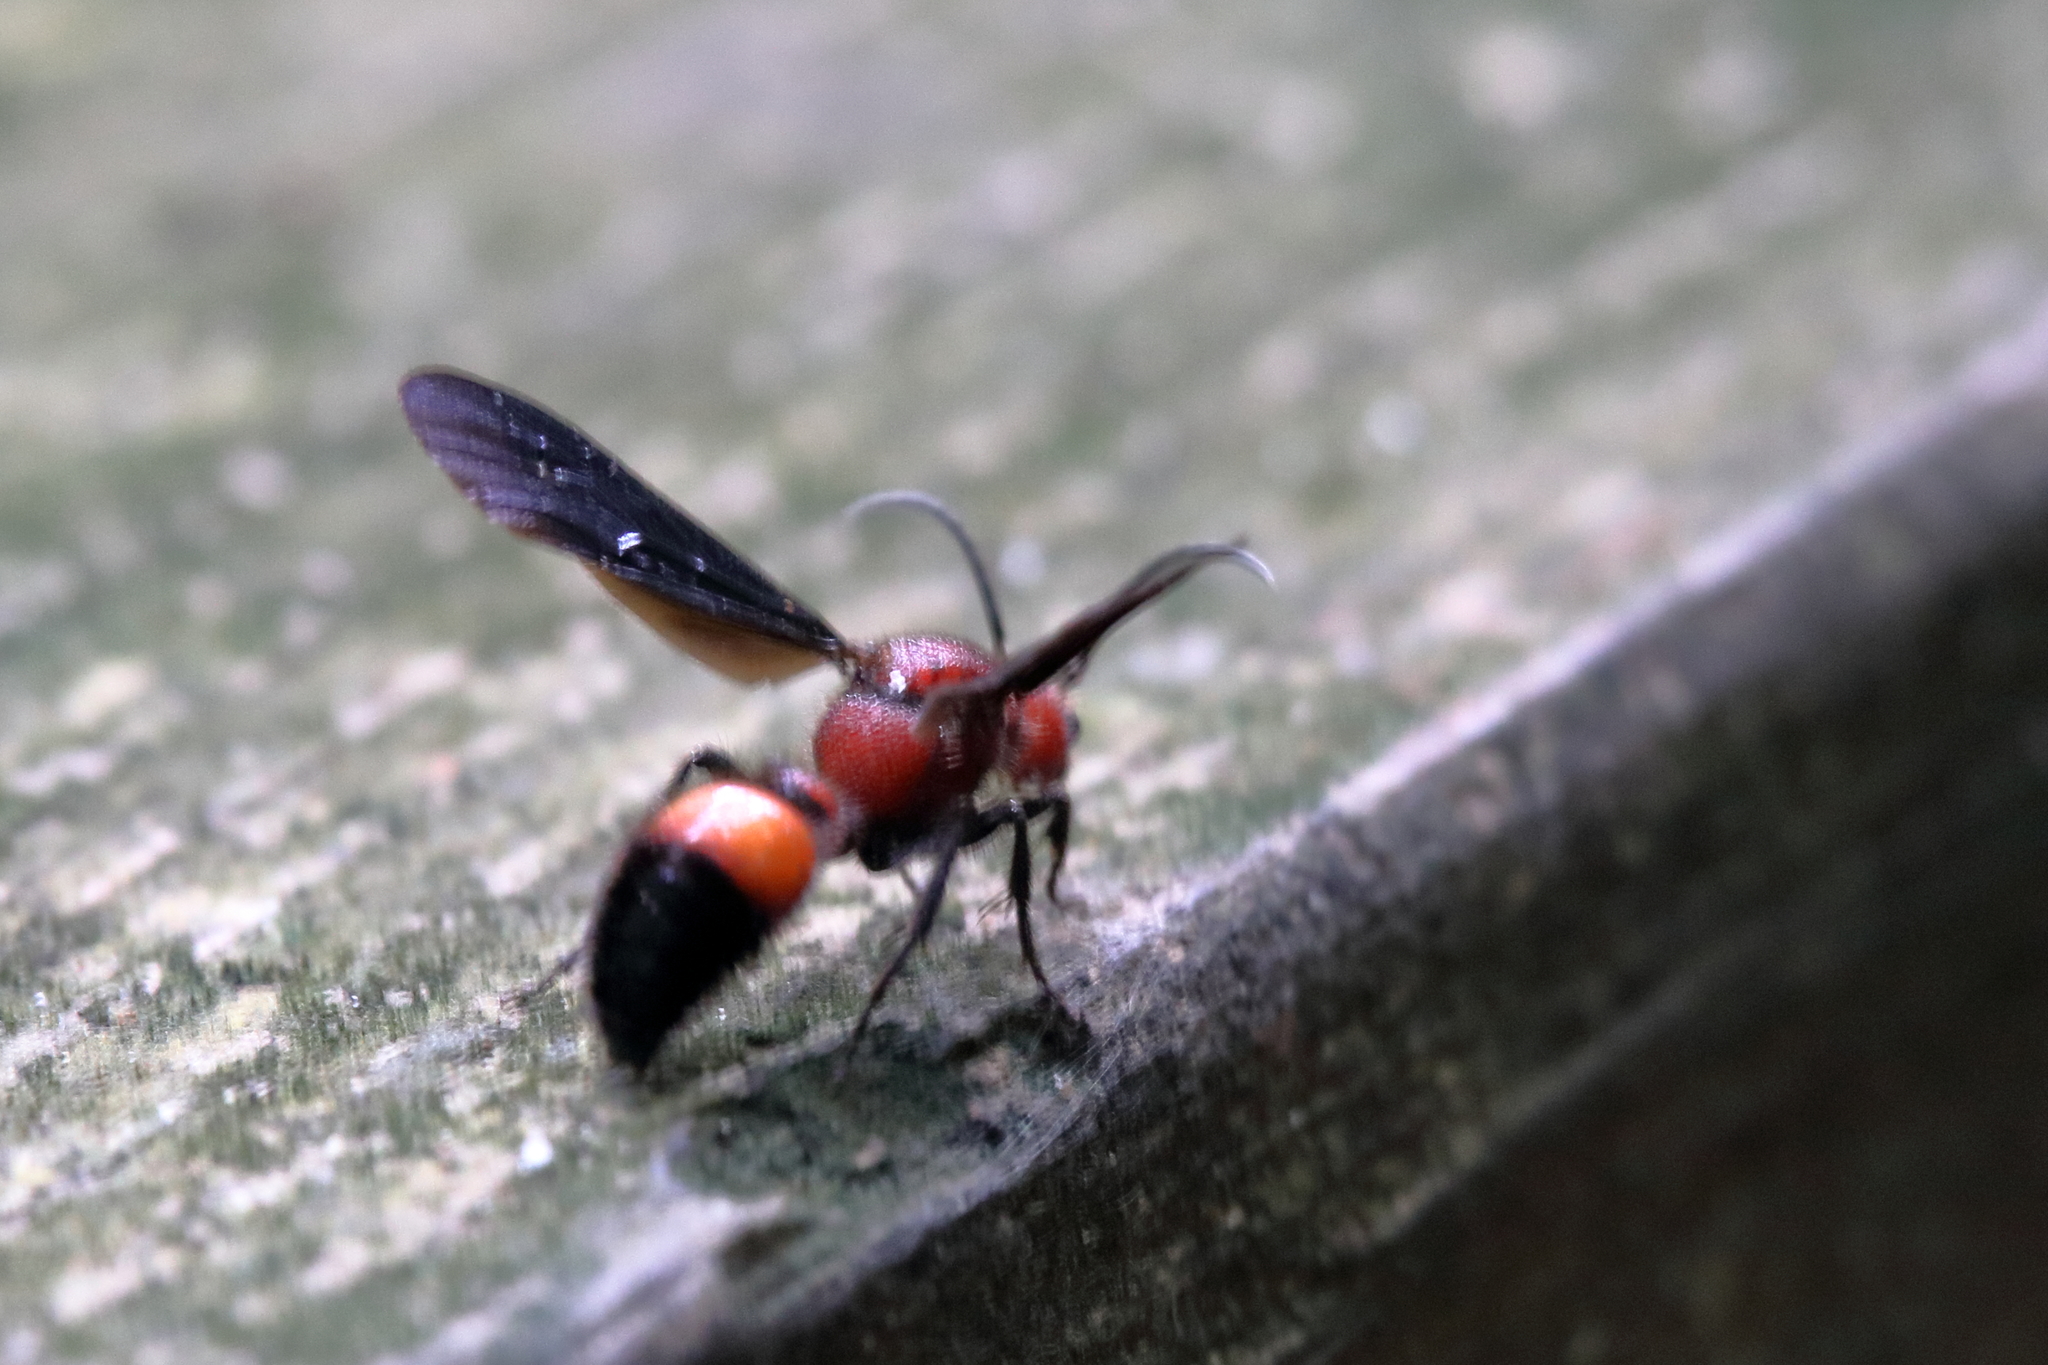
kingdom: Animalia
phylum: Arthropoda
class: Insecta
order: Hymenoptera
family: Mutillidae
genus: Sphaeropthalma
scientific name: Sphaeropthalma
